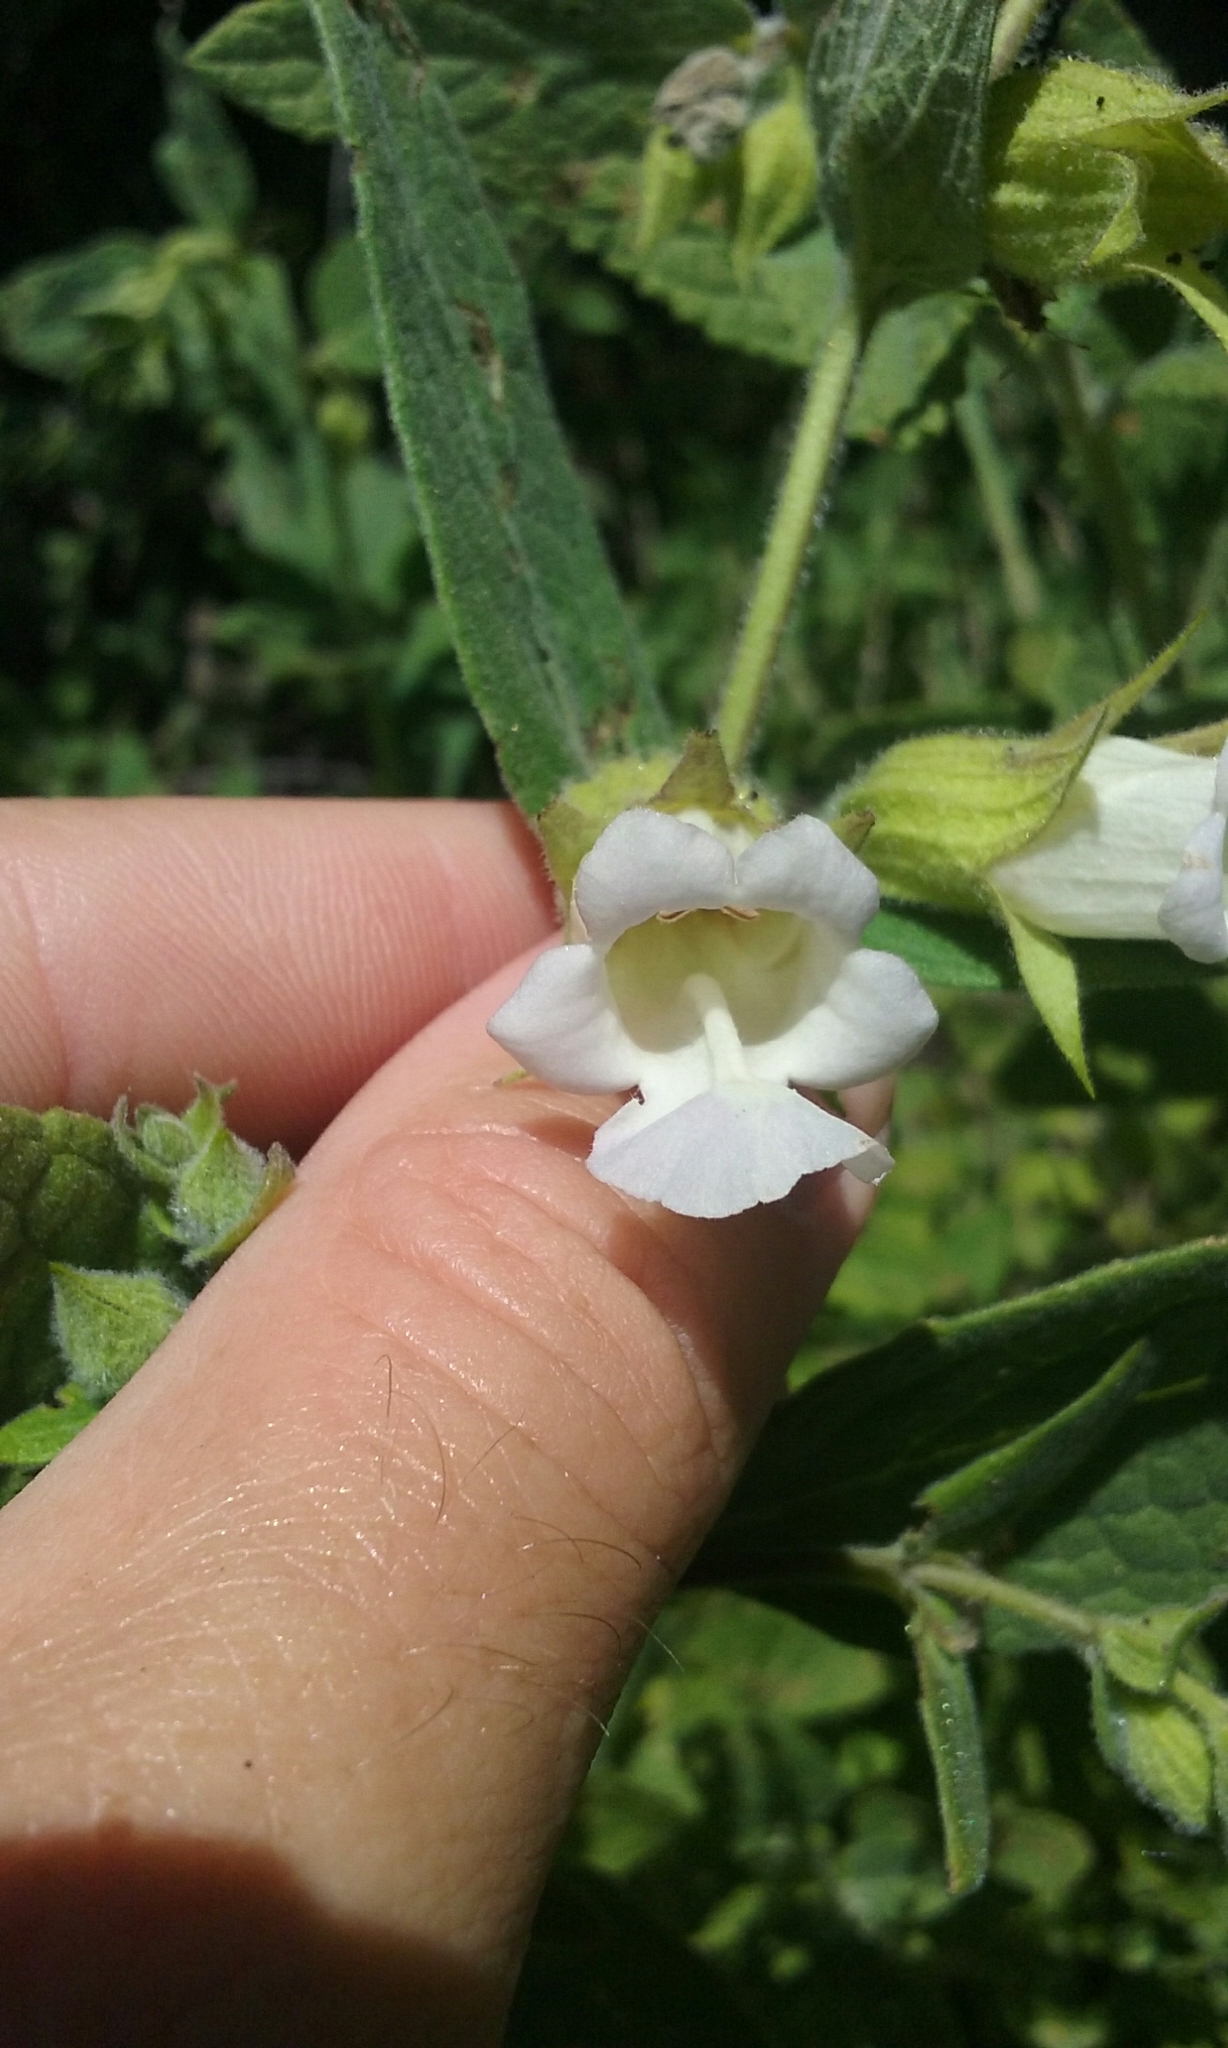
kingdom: Plantae
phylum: Tracheophyta
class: Magnoliopsida
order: Lamiales
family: Lamiaceae
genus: Lepechinia
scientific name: Lepechinia calycina
